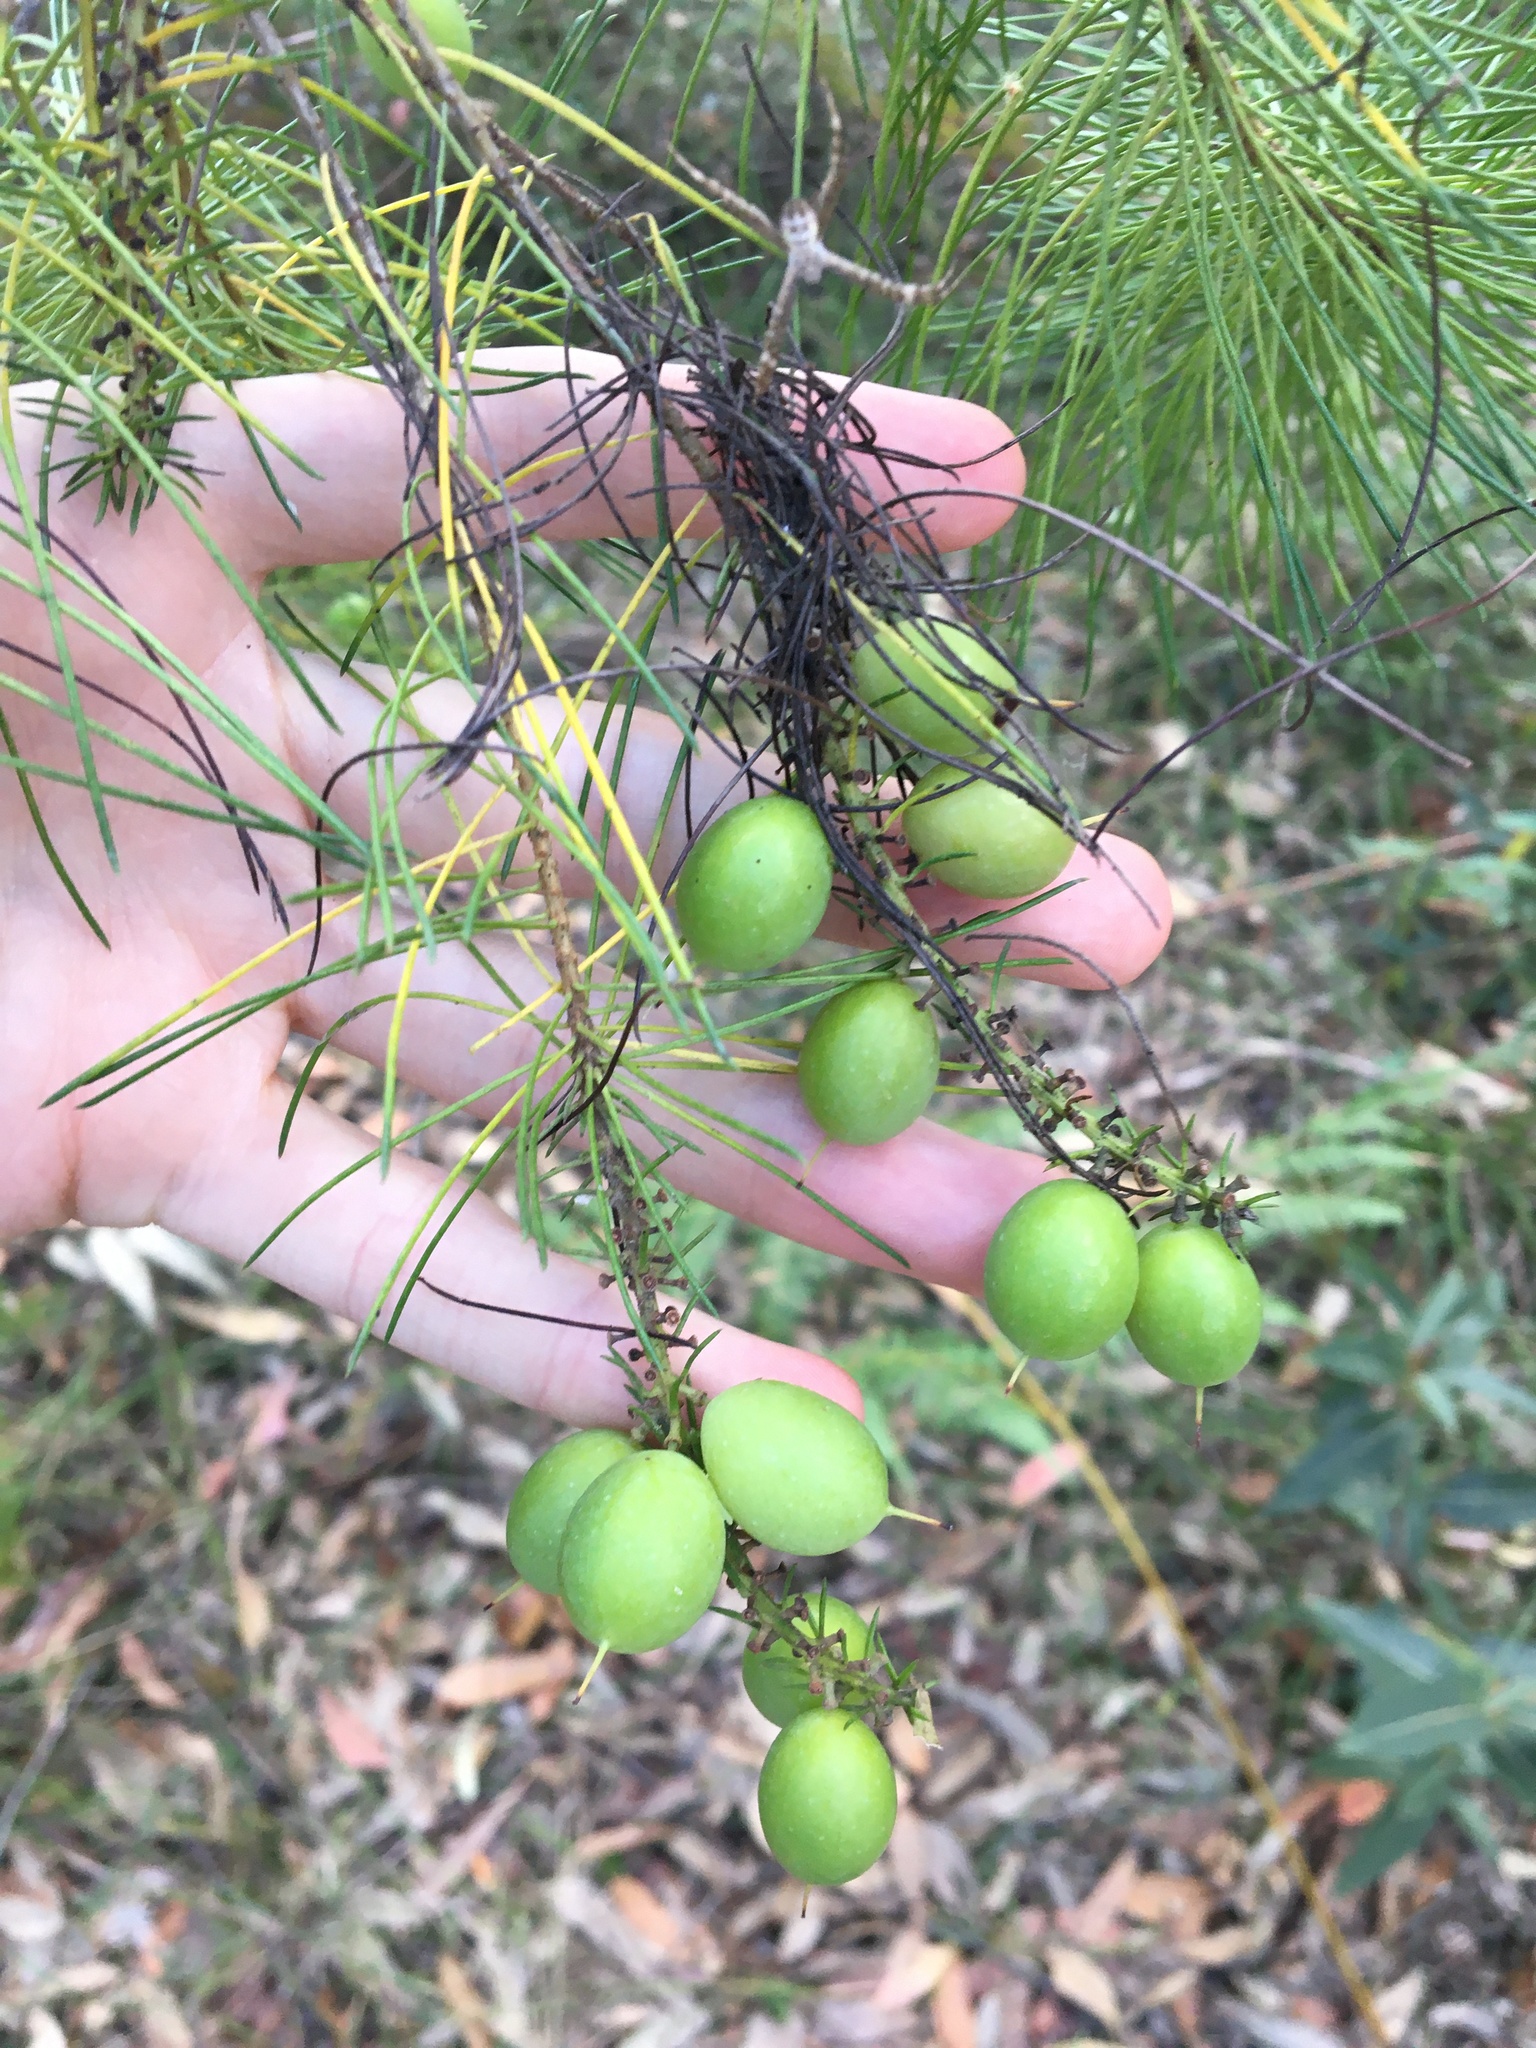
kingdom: Plantae
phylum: Tracheophyta
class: Magnoliopsida
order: Proteales
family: Proteaceae
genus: Persoonia
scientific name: Persoonia pinifolia
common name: Pine-leaf geebung
